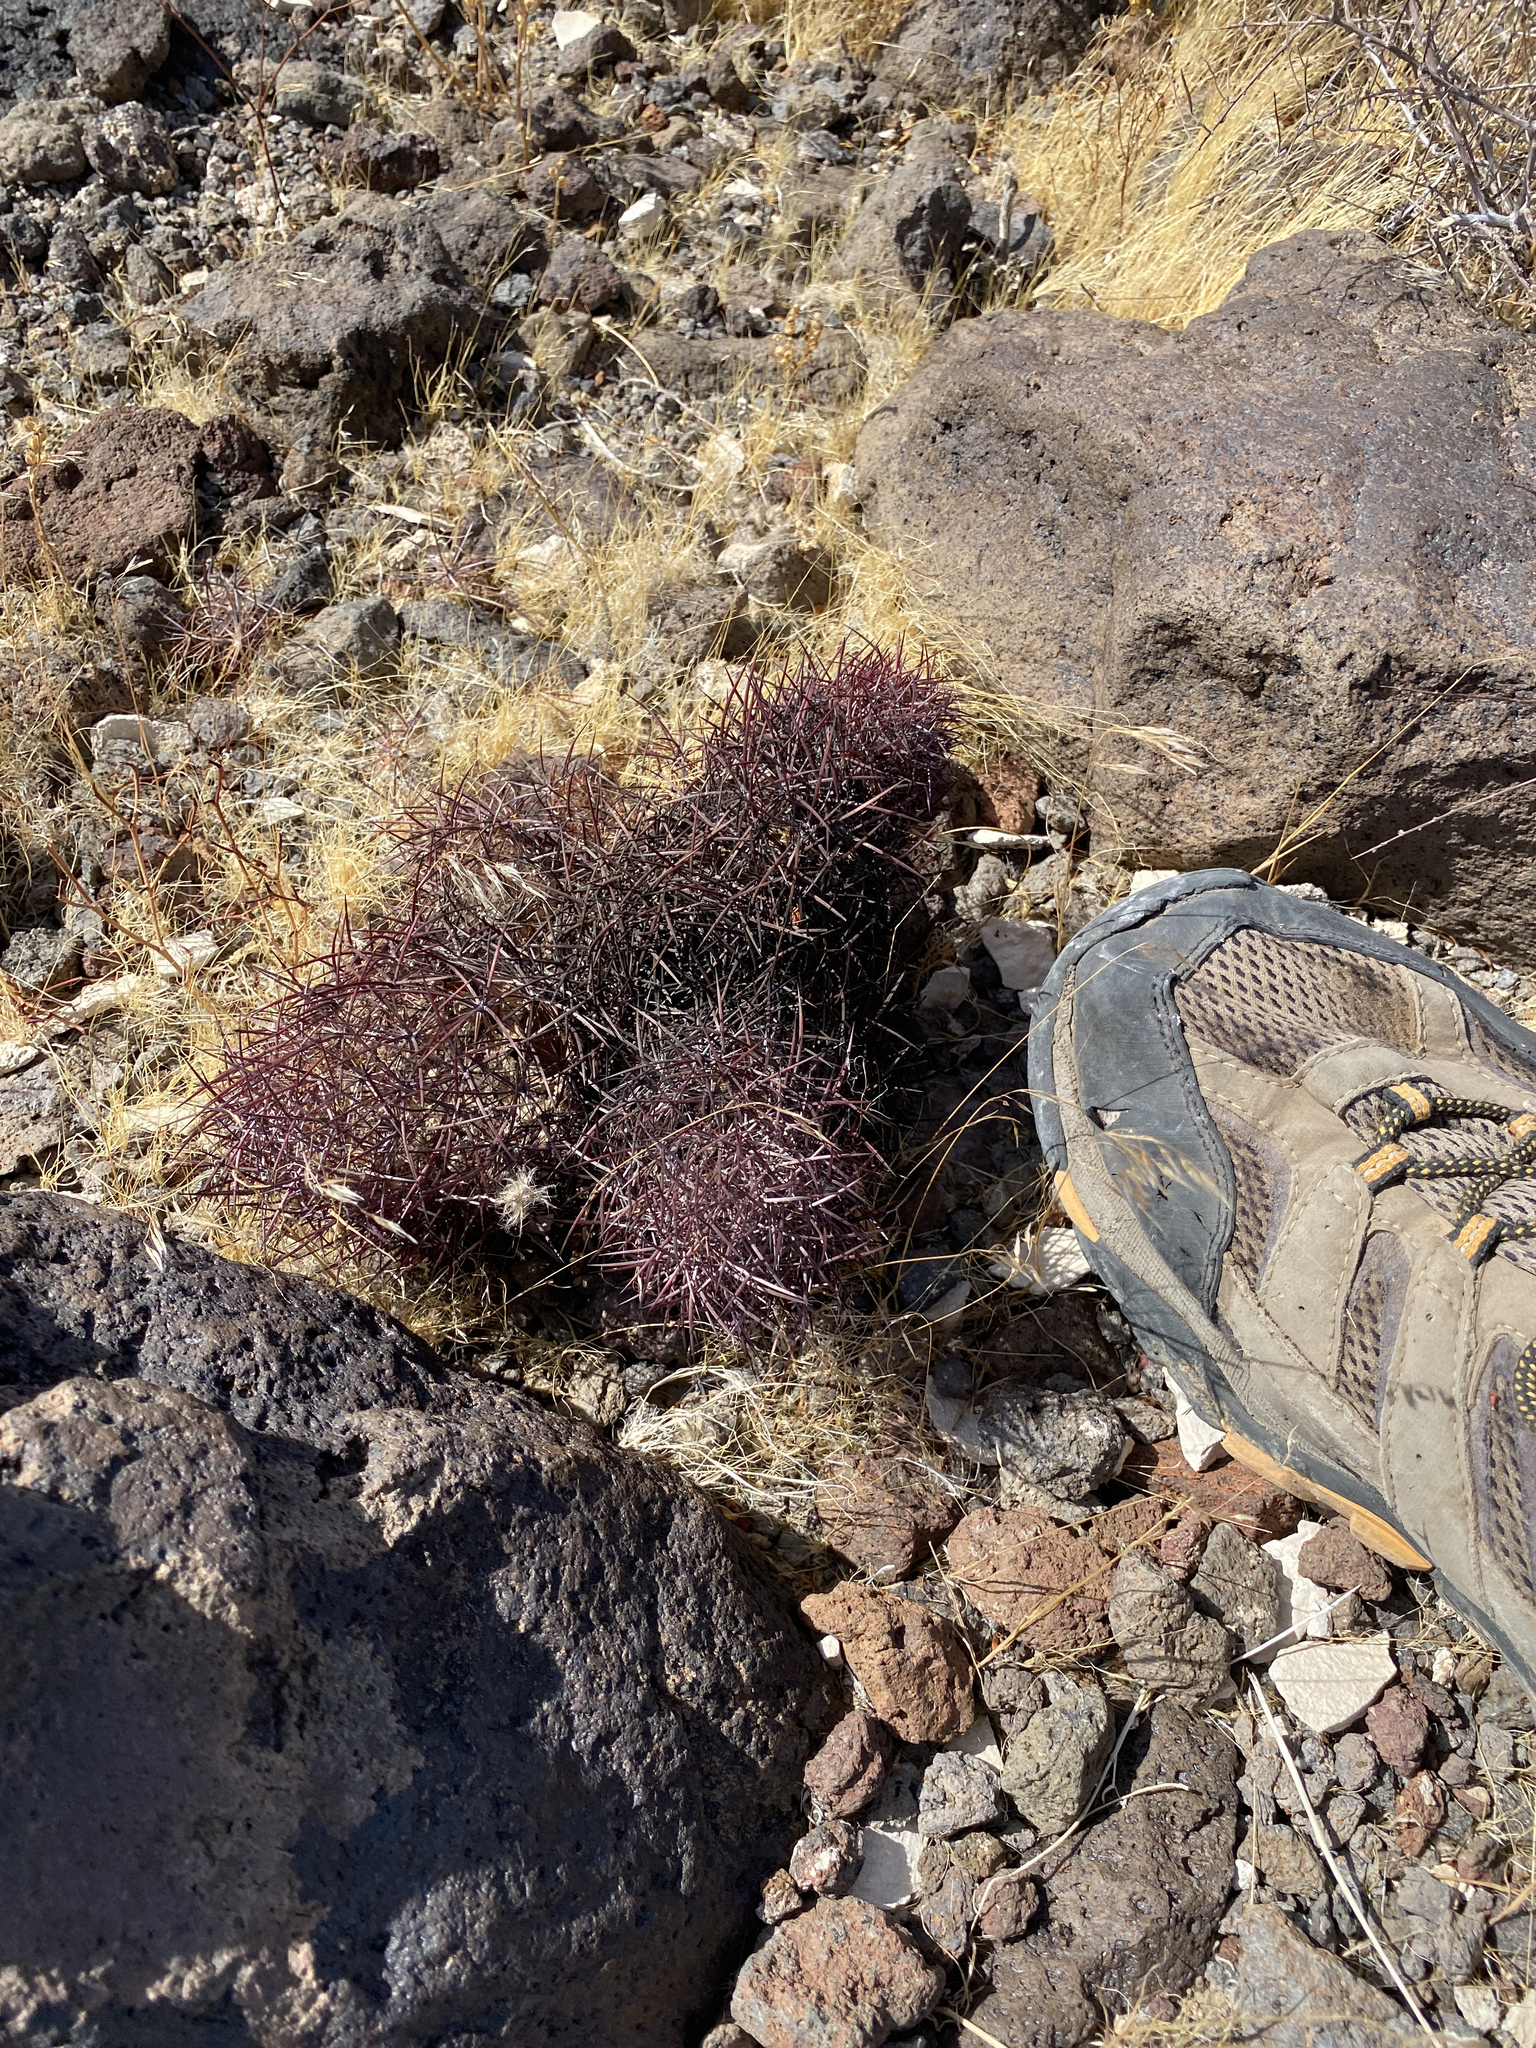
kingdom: Plantae
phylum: Tracheophyta
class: Magnoliopsida
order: Caryophyllales
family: Cactaceae
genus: Sclerocactus
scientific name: Sclerocactus johnsonii
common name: Eight-spine fishhook cactus
